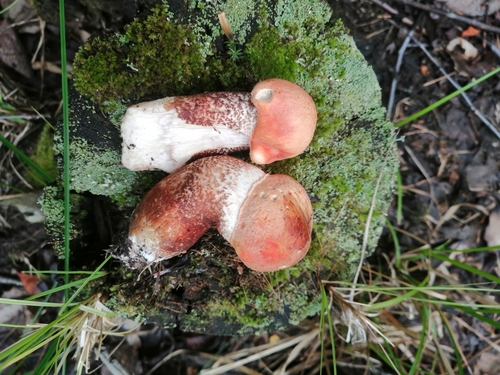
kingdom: Fungi
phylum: Basidiomycota
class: Agaricomycetes
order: Boletales
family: Boletaceae
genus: Leccinum
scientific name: Leccinum aurantiacum
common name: Orange bolete
